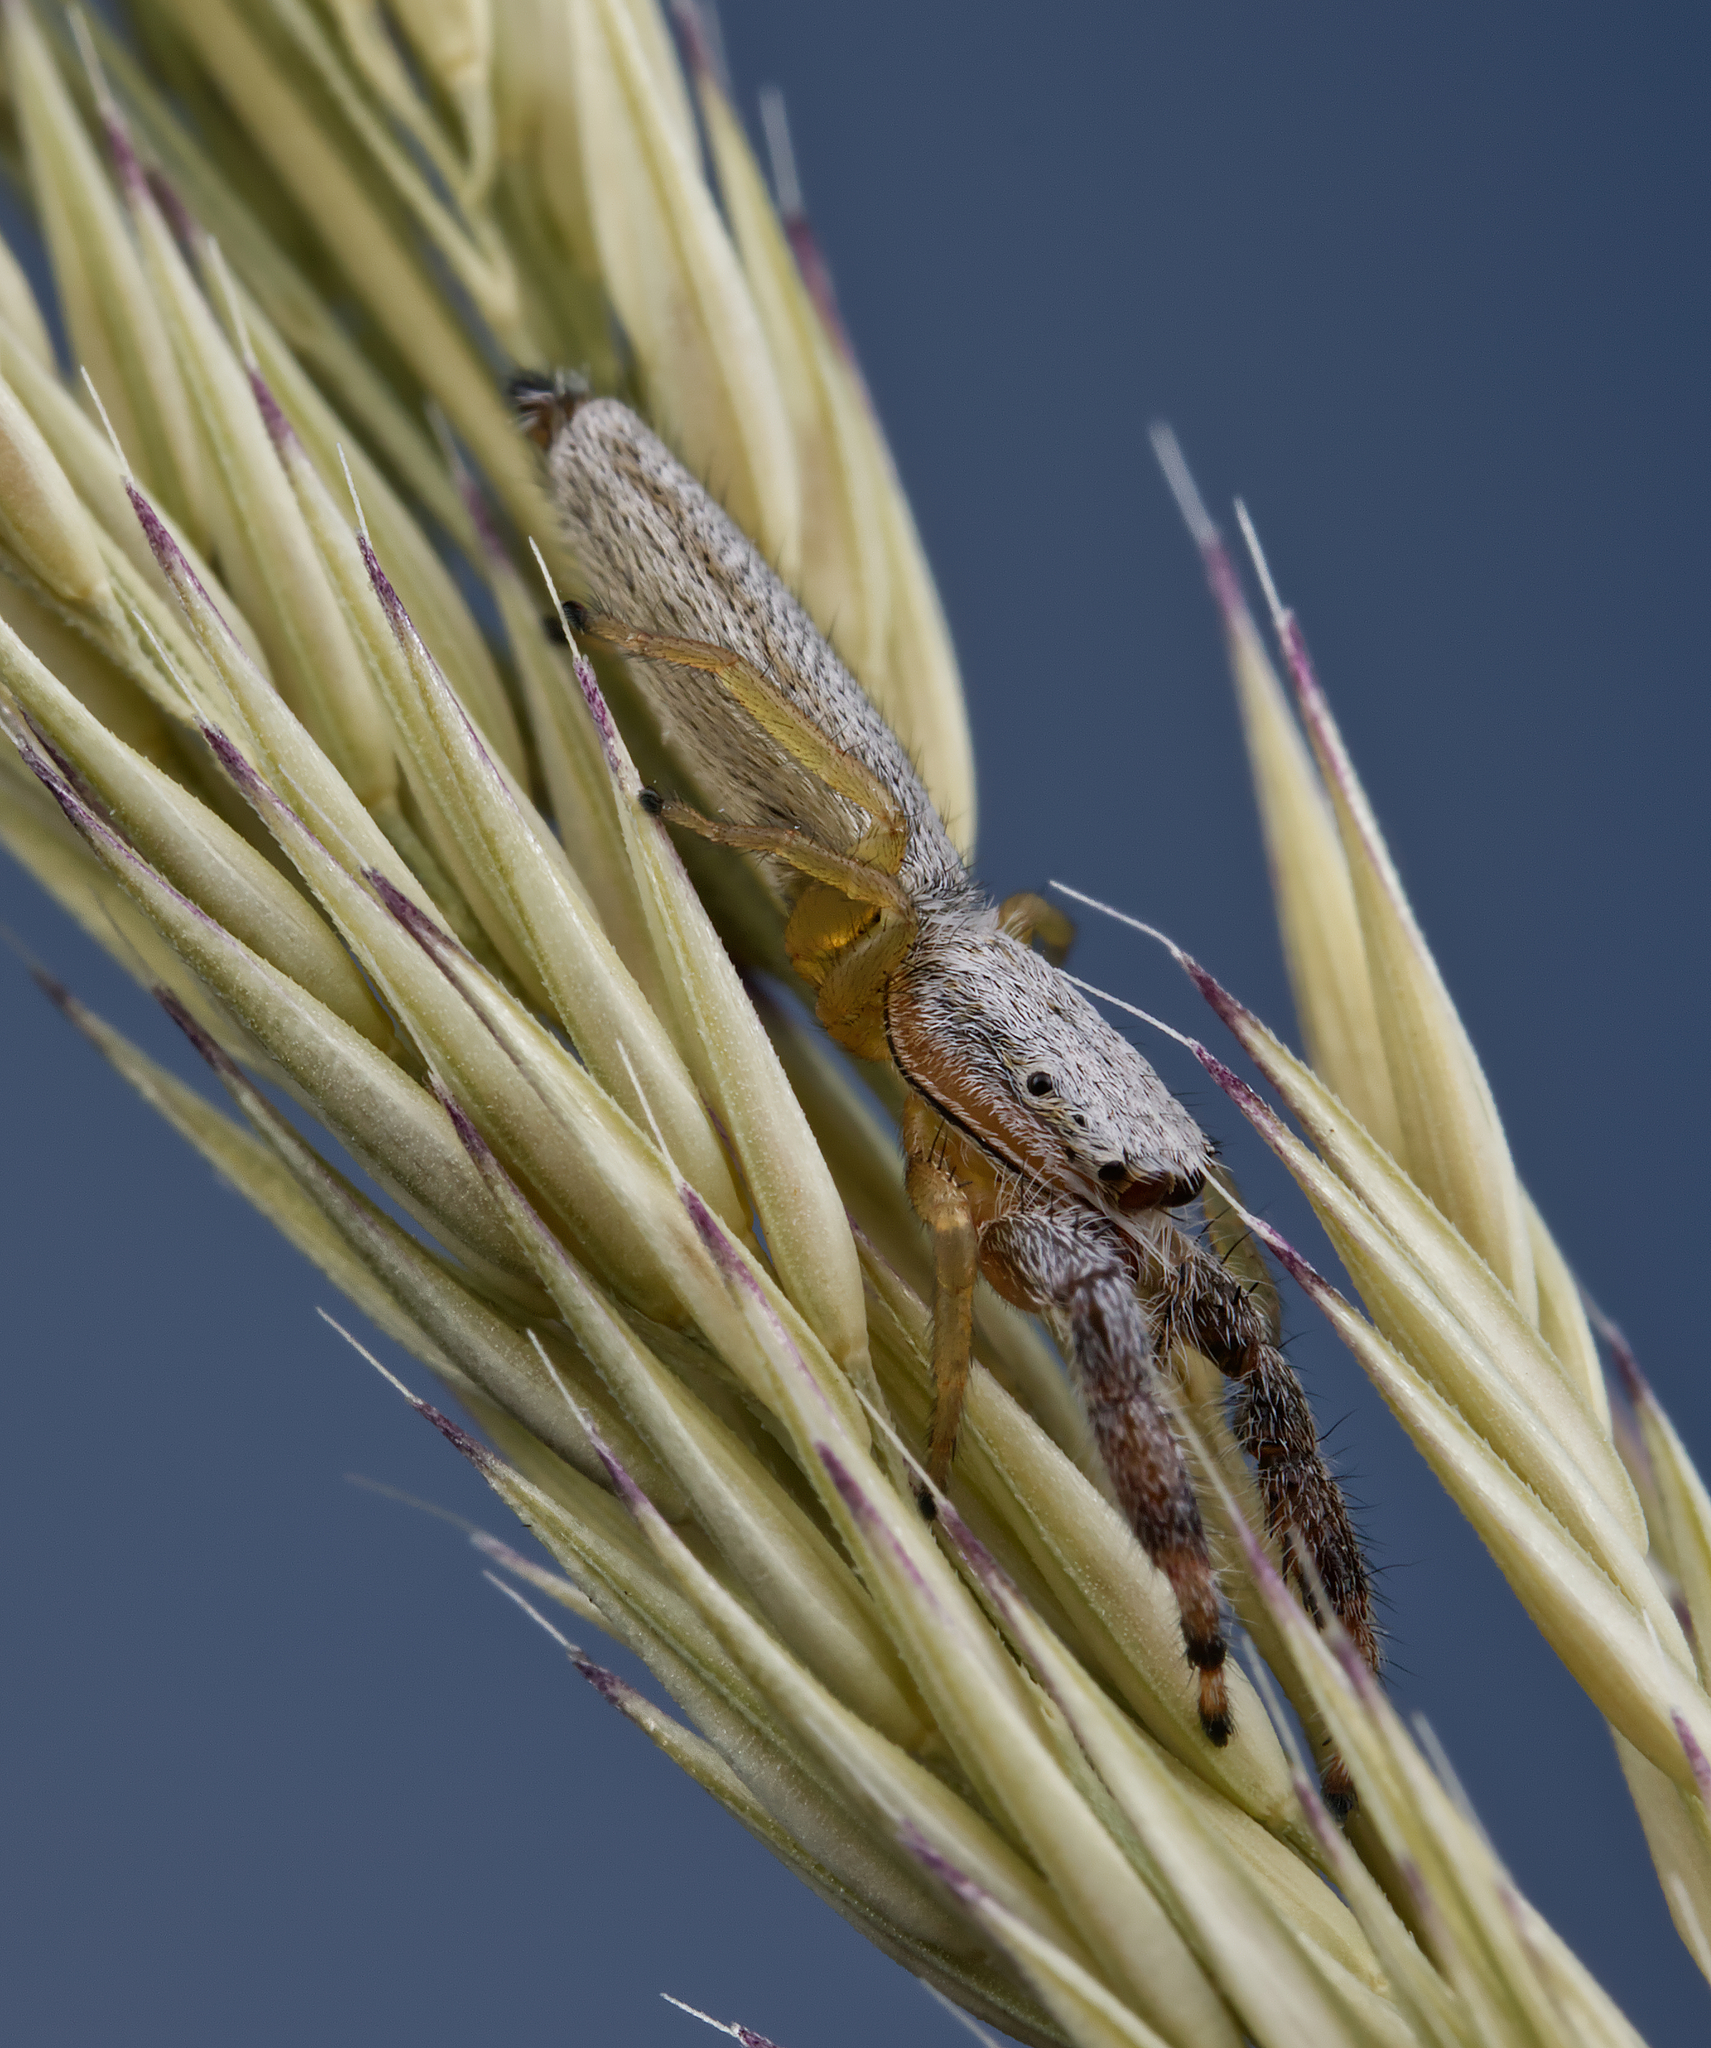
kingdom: Animalia
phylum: Arthropoda
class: Arachnida
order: Araneae
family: Salticidae
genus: Marpissa
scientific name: Marpissa pikei
